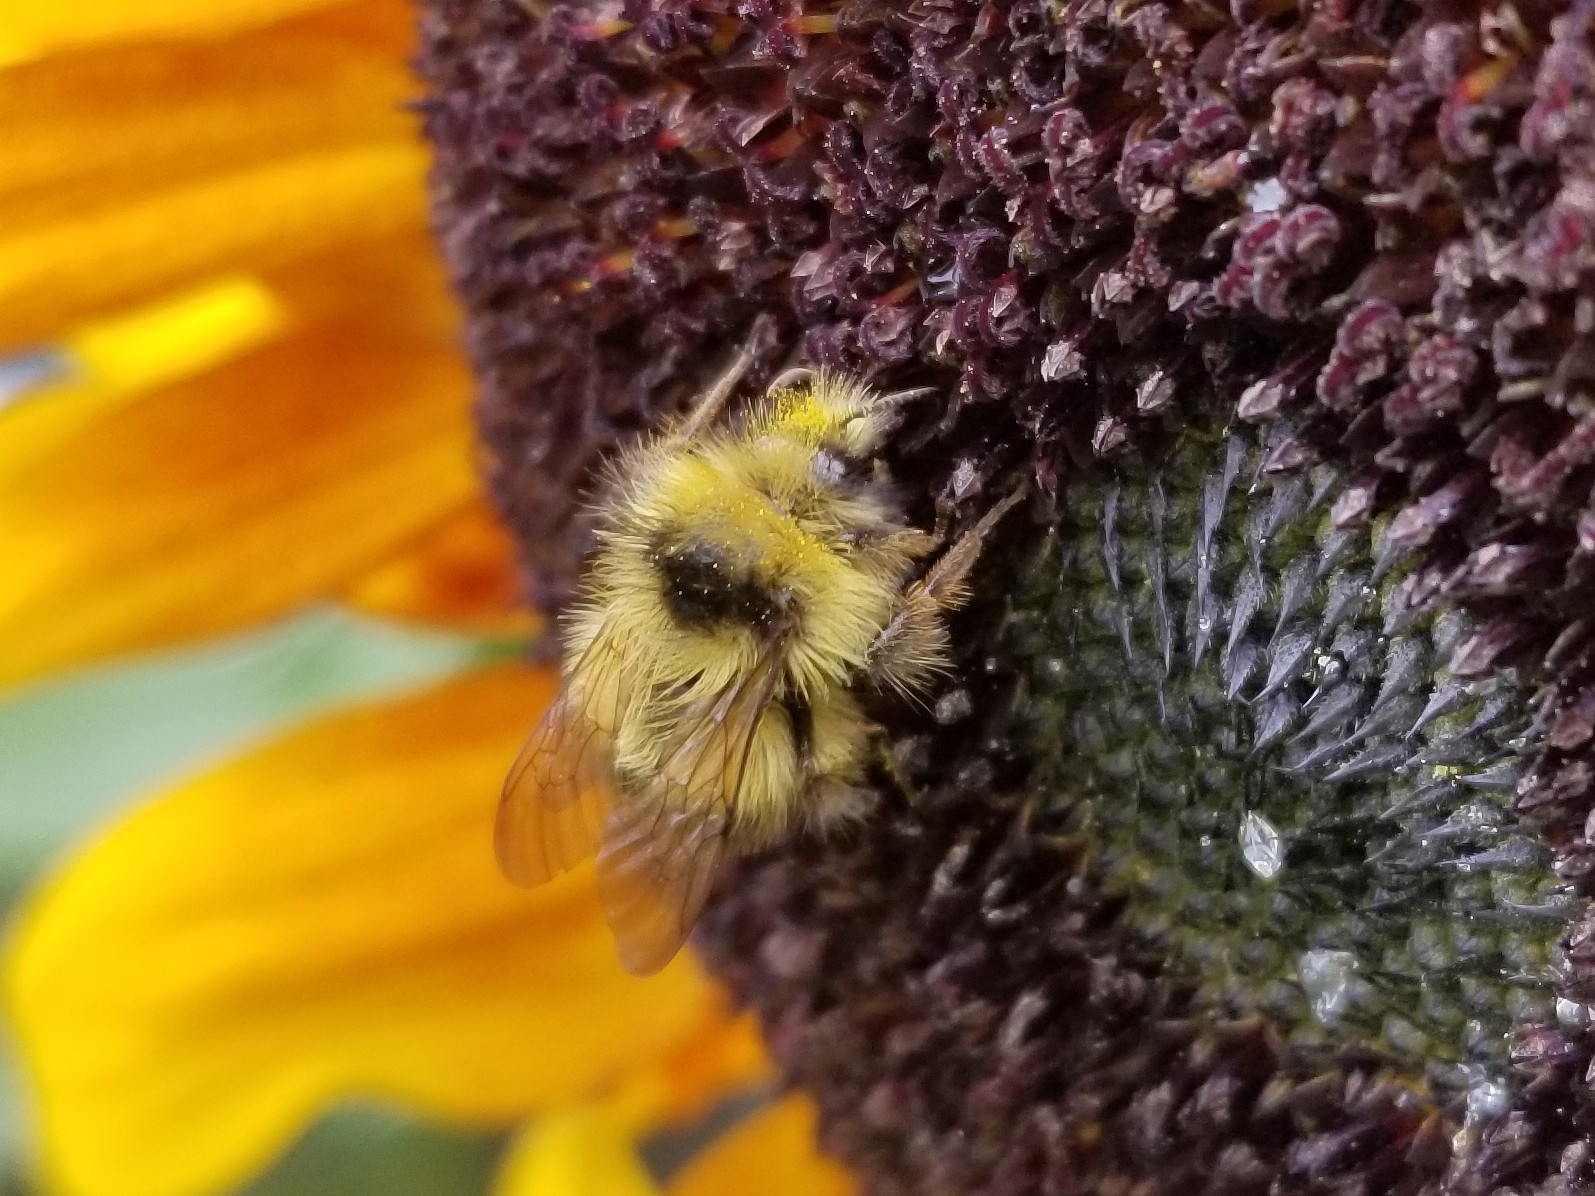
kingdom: Animalia
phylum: Arthropoda
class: Insecta
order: Hymenoptera
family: Apidae
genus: Bombus
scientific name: Bombus flavifrons
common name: Yellow head bumble bee
